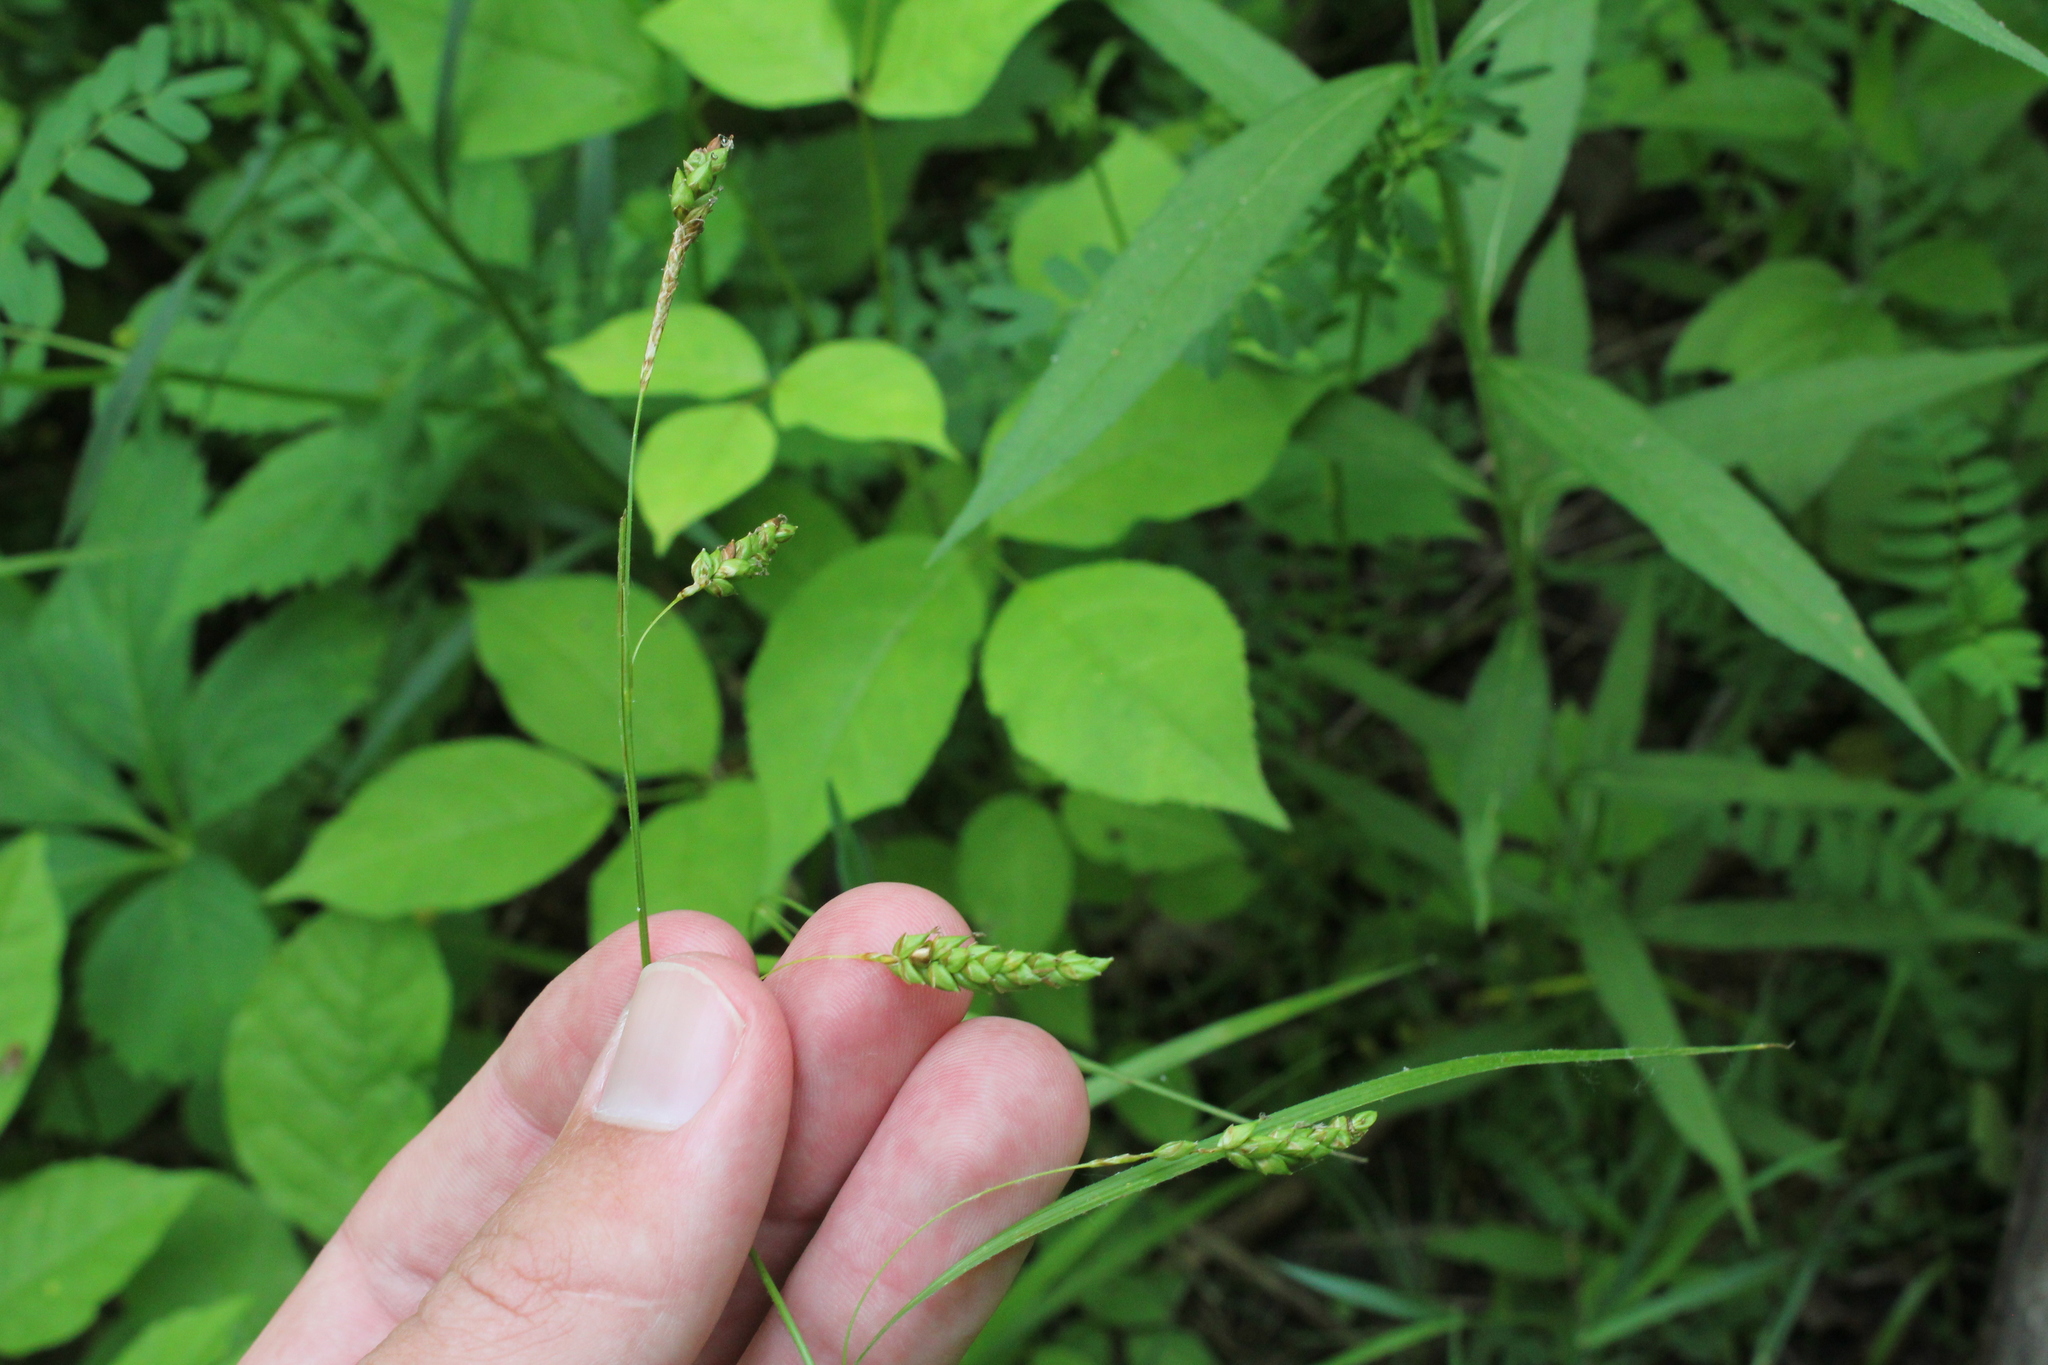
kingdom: Plantae
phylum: Tracheophyta
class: Liliopsida
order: Poales
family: Cyperaceae
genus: Carex
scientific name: Carex formosa
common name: Awnless graceful sedge
